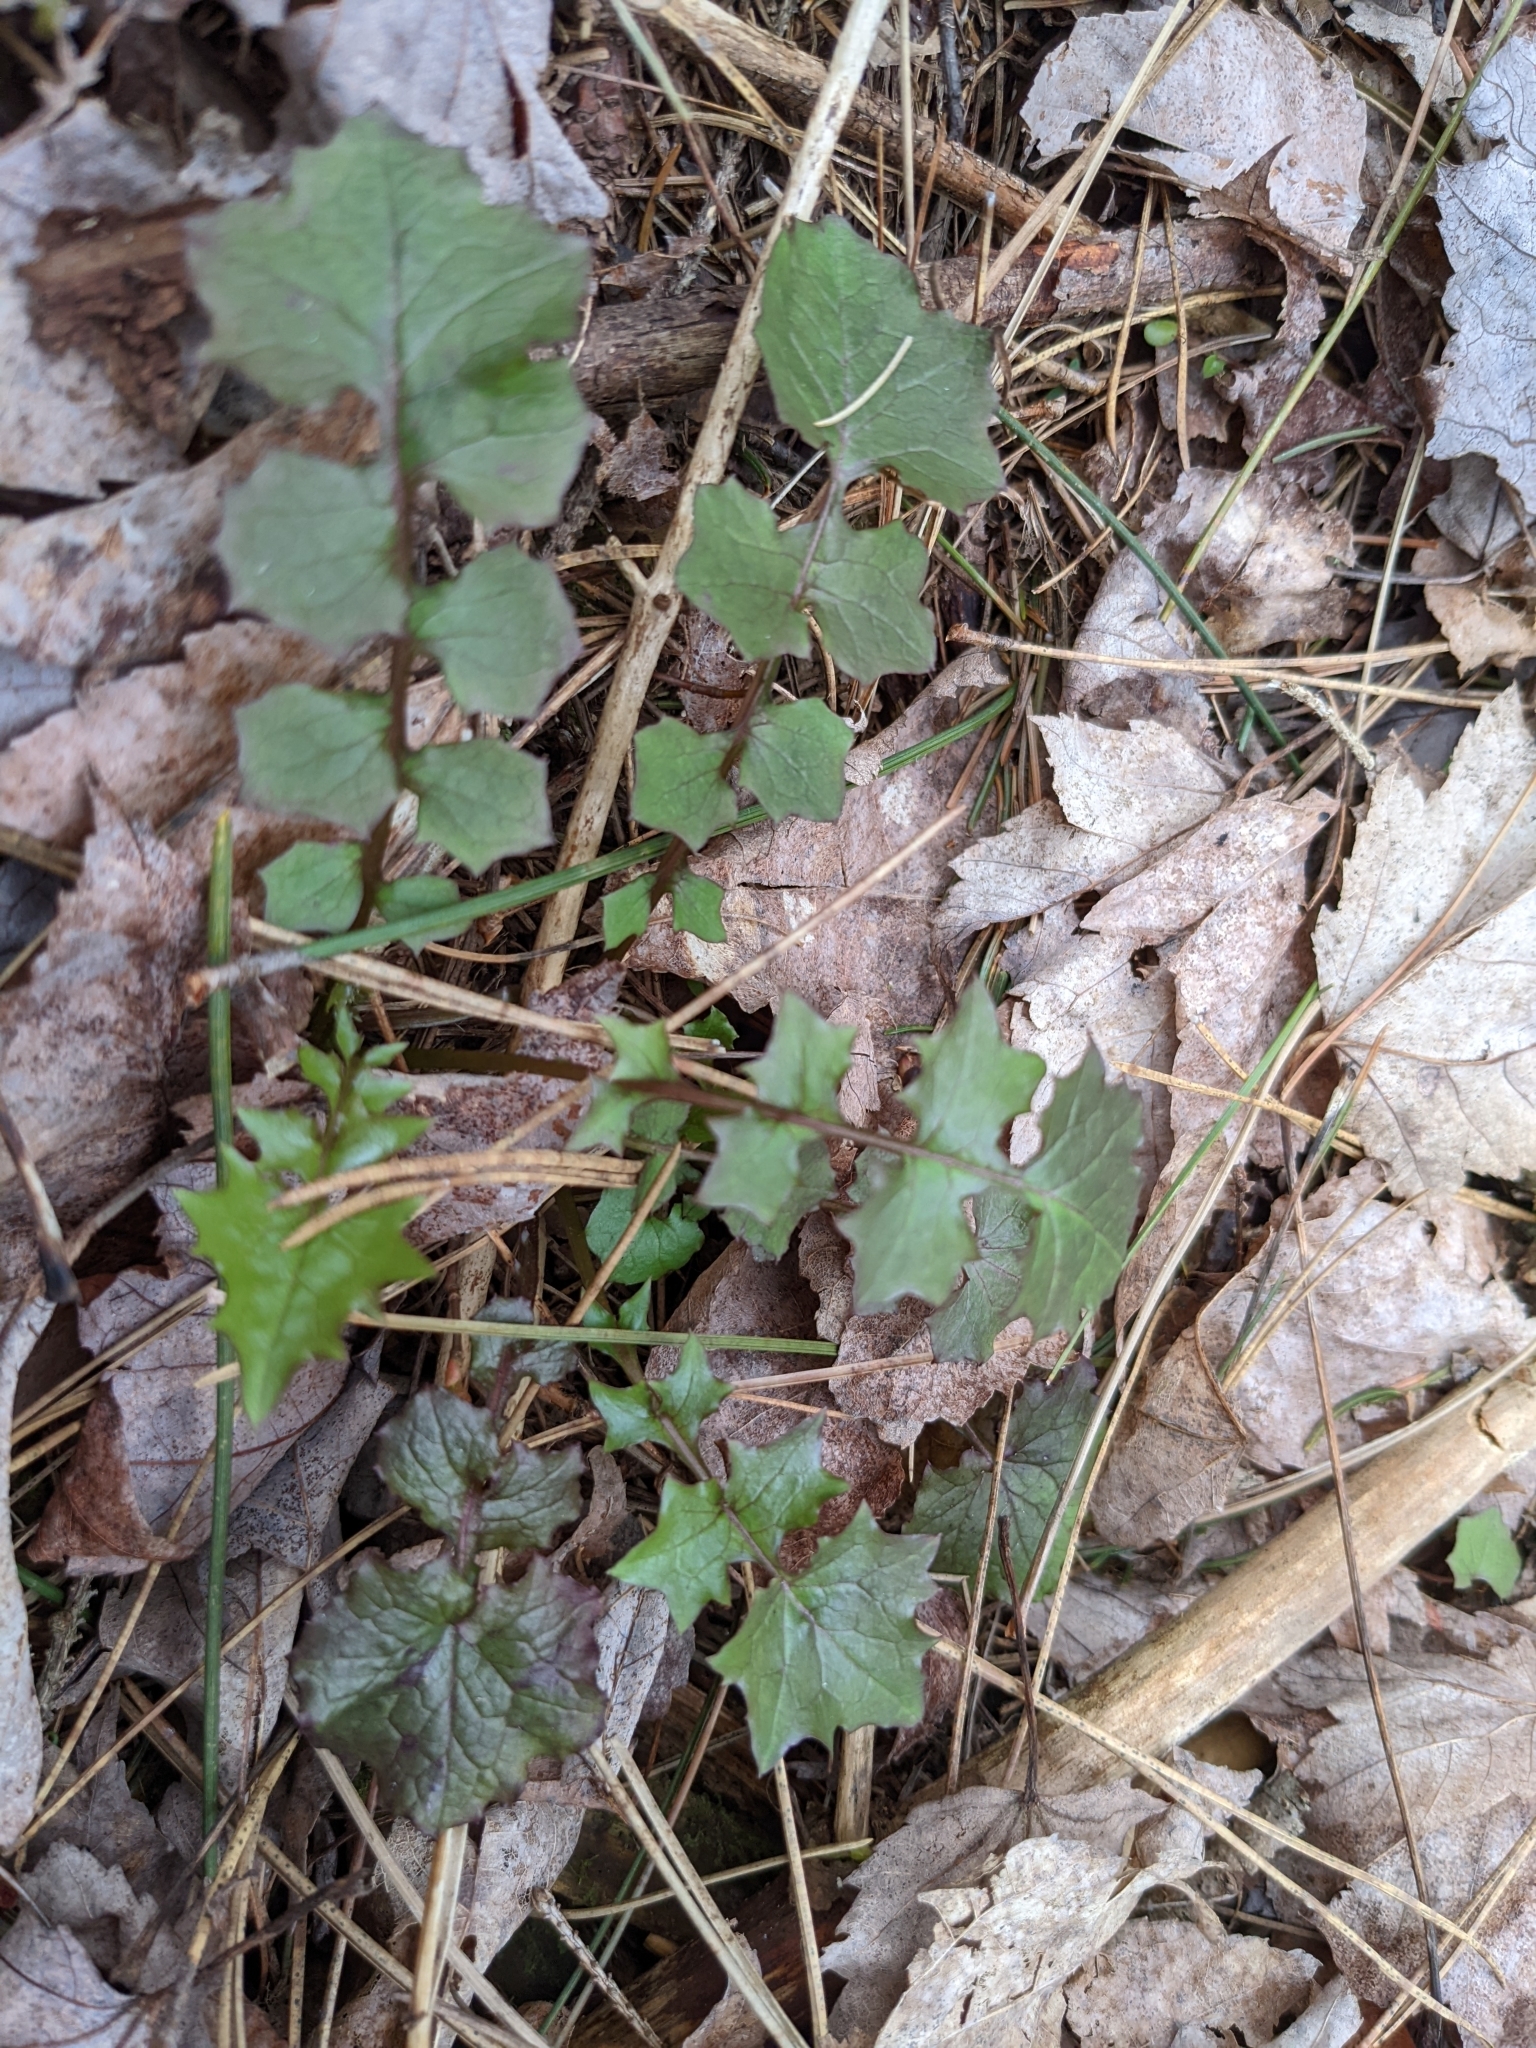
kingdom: Plantae
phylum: Tracheophyta
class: Magnoliopsida
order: Asterales
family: Asteraceae
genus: Mycelis
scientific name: Mycelis muralis
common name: Wall lettuce
